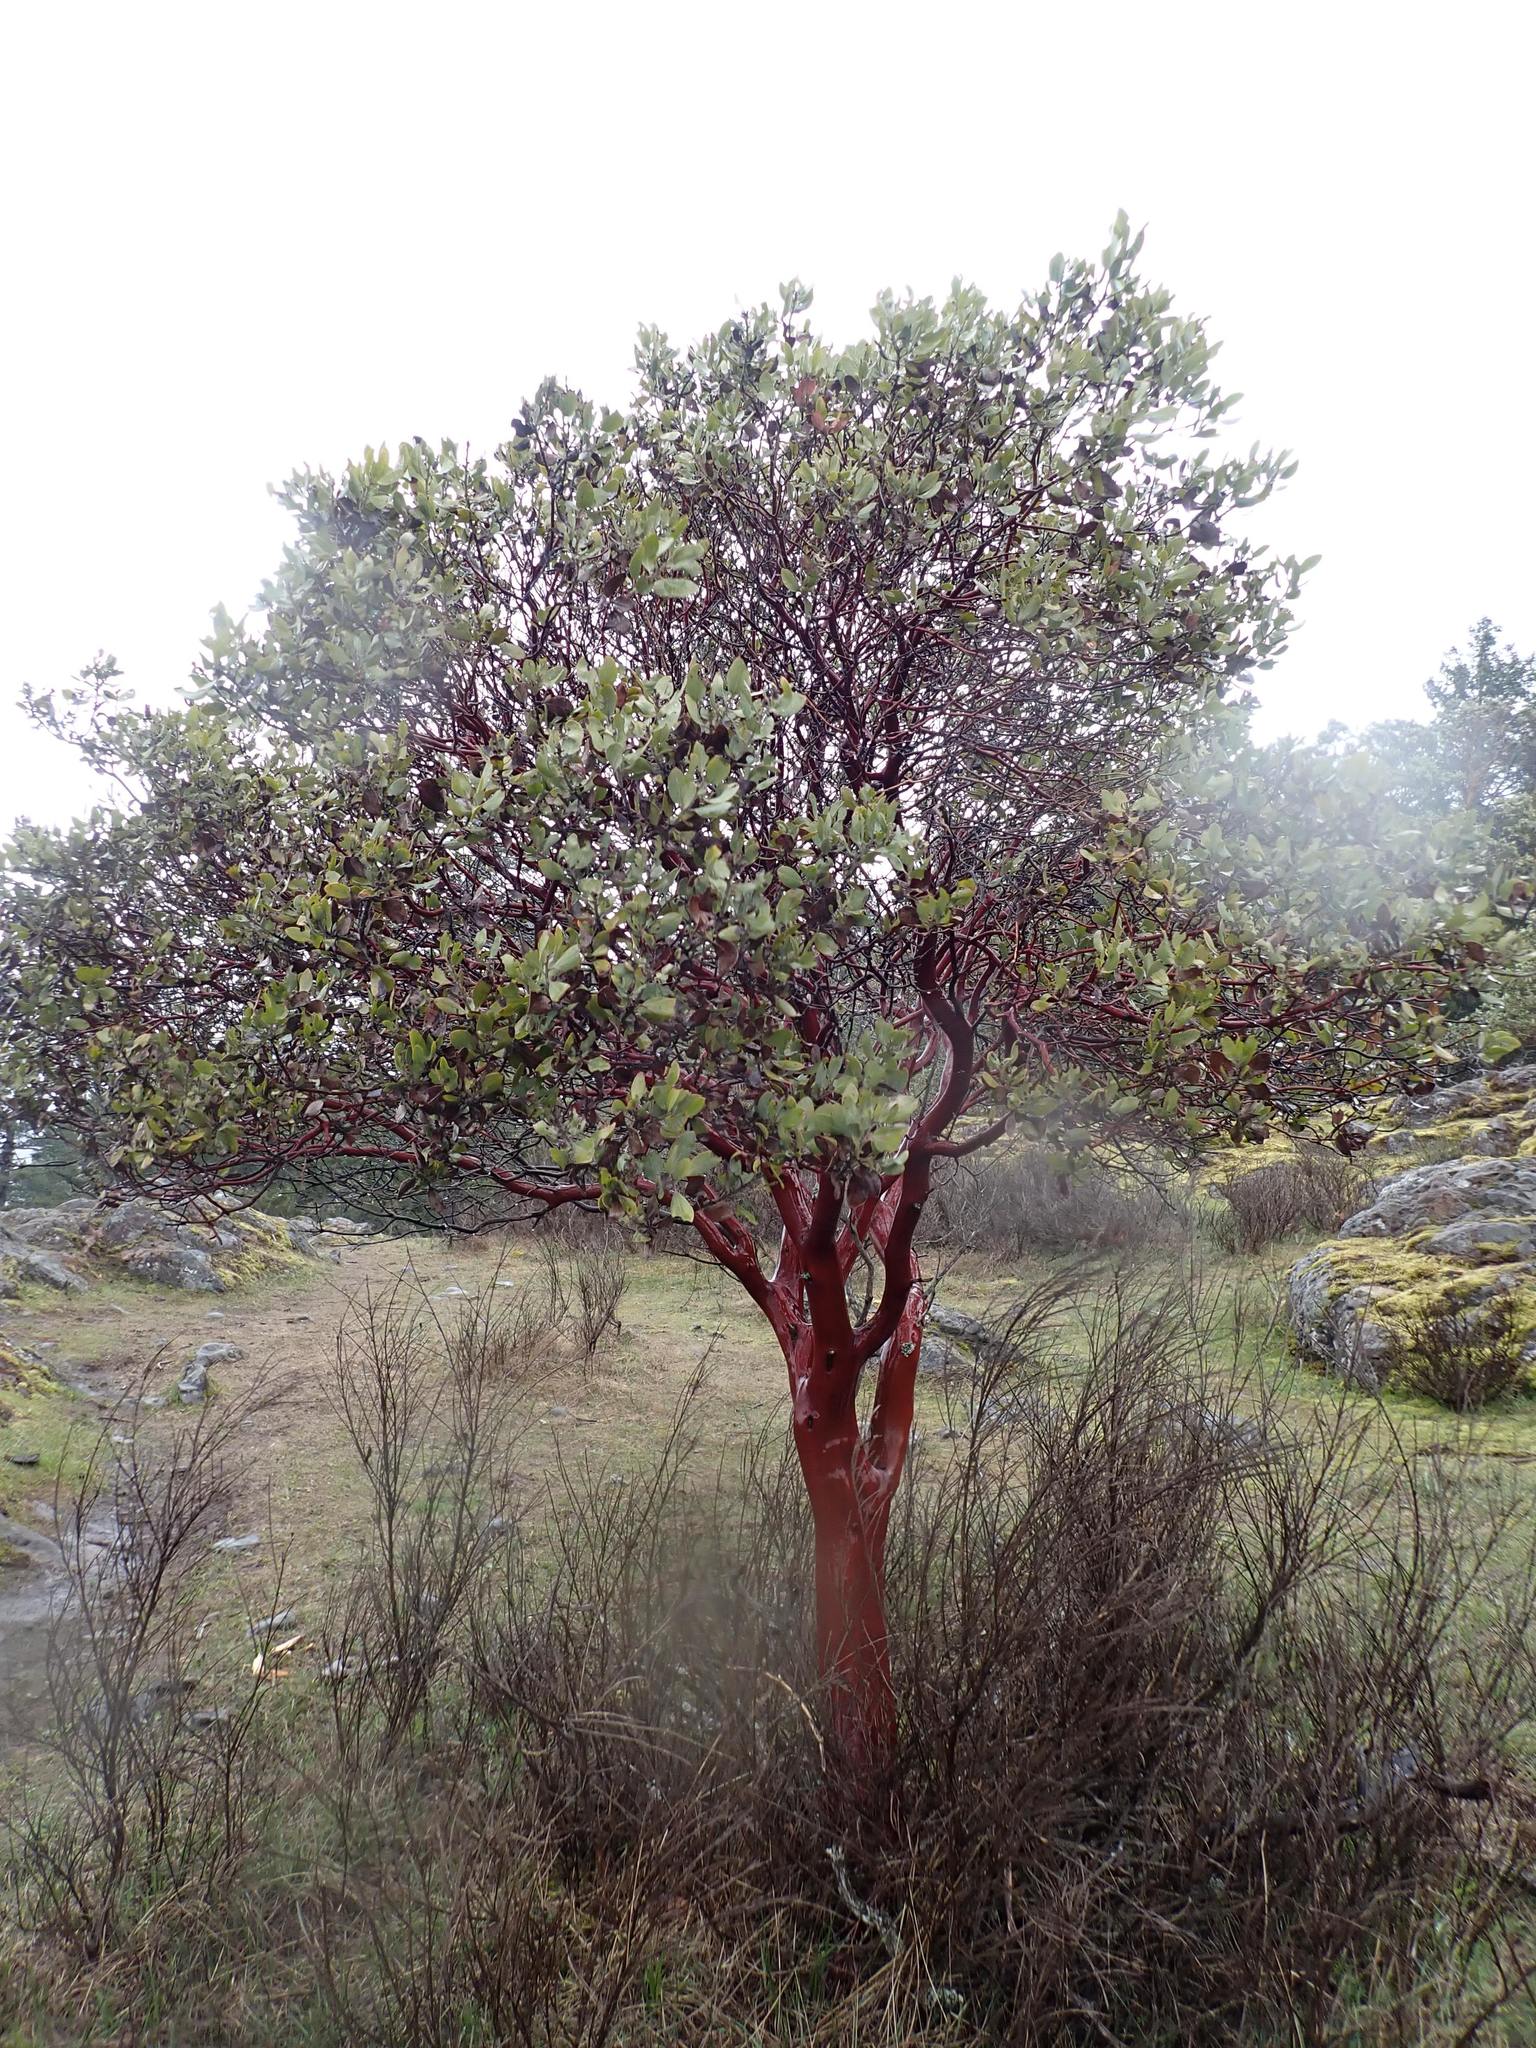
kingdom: Plantae
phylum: Tracheophyta
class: Magnoliopsida
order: Ericales
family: Ericaceae
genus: Arctostaphylos
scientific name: Arctostaphylos columbiana
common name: Bristly bearberry
